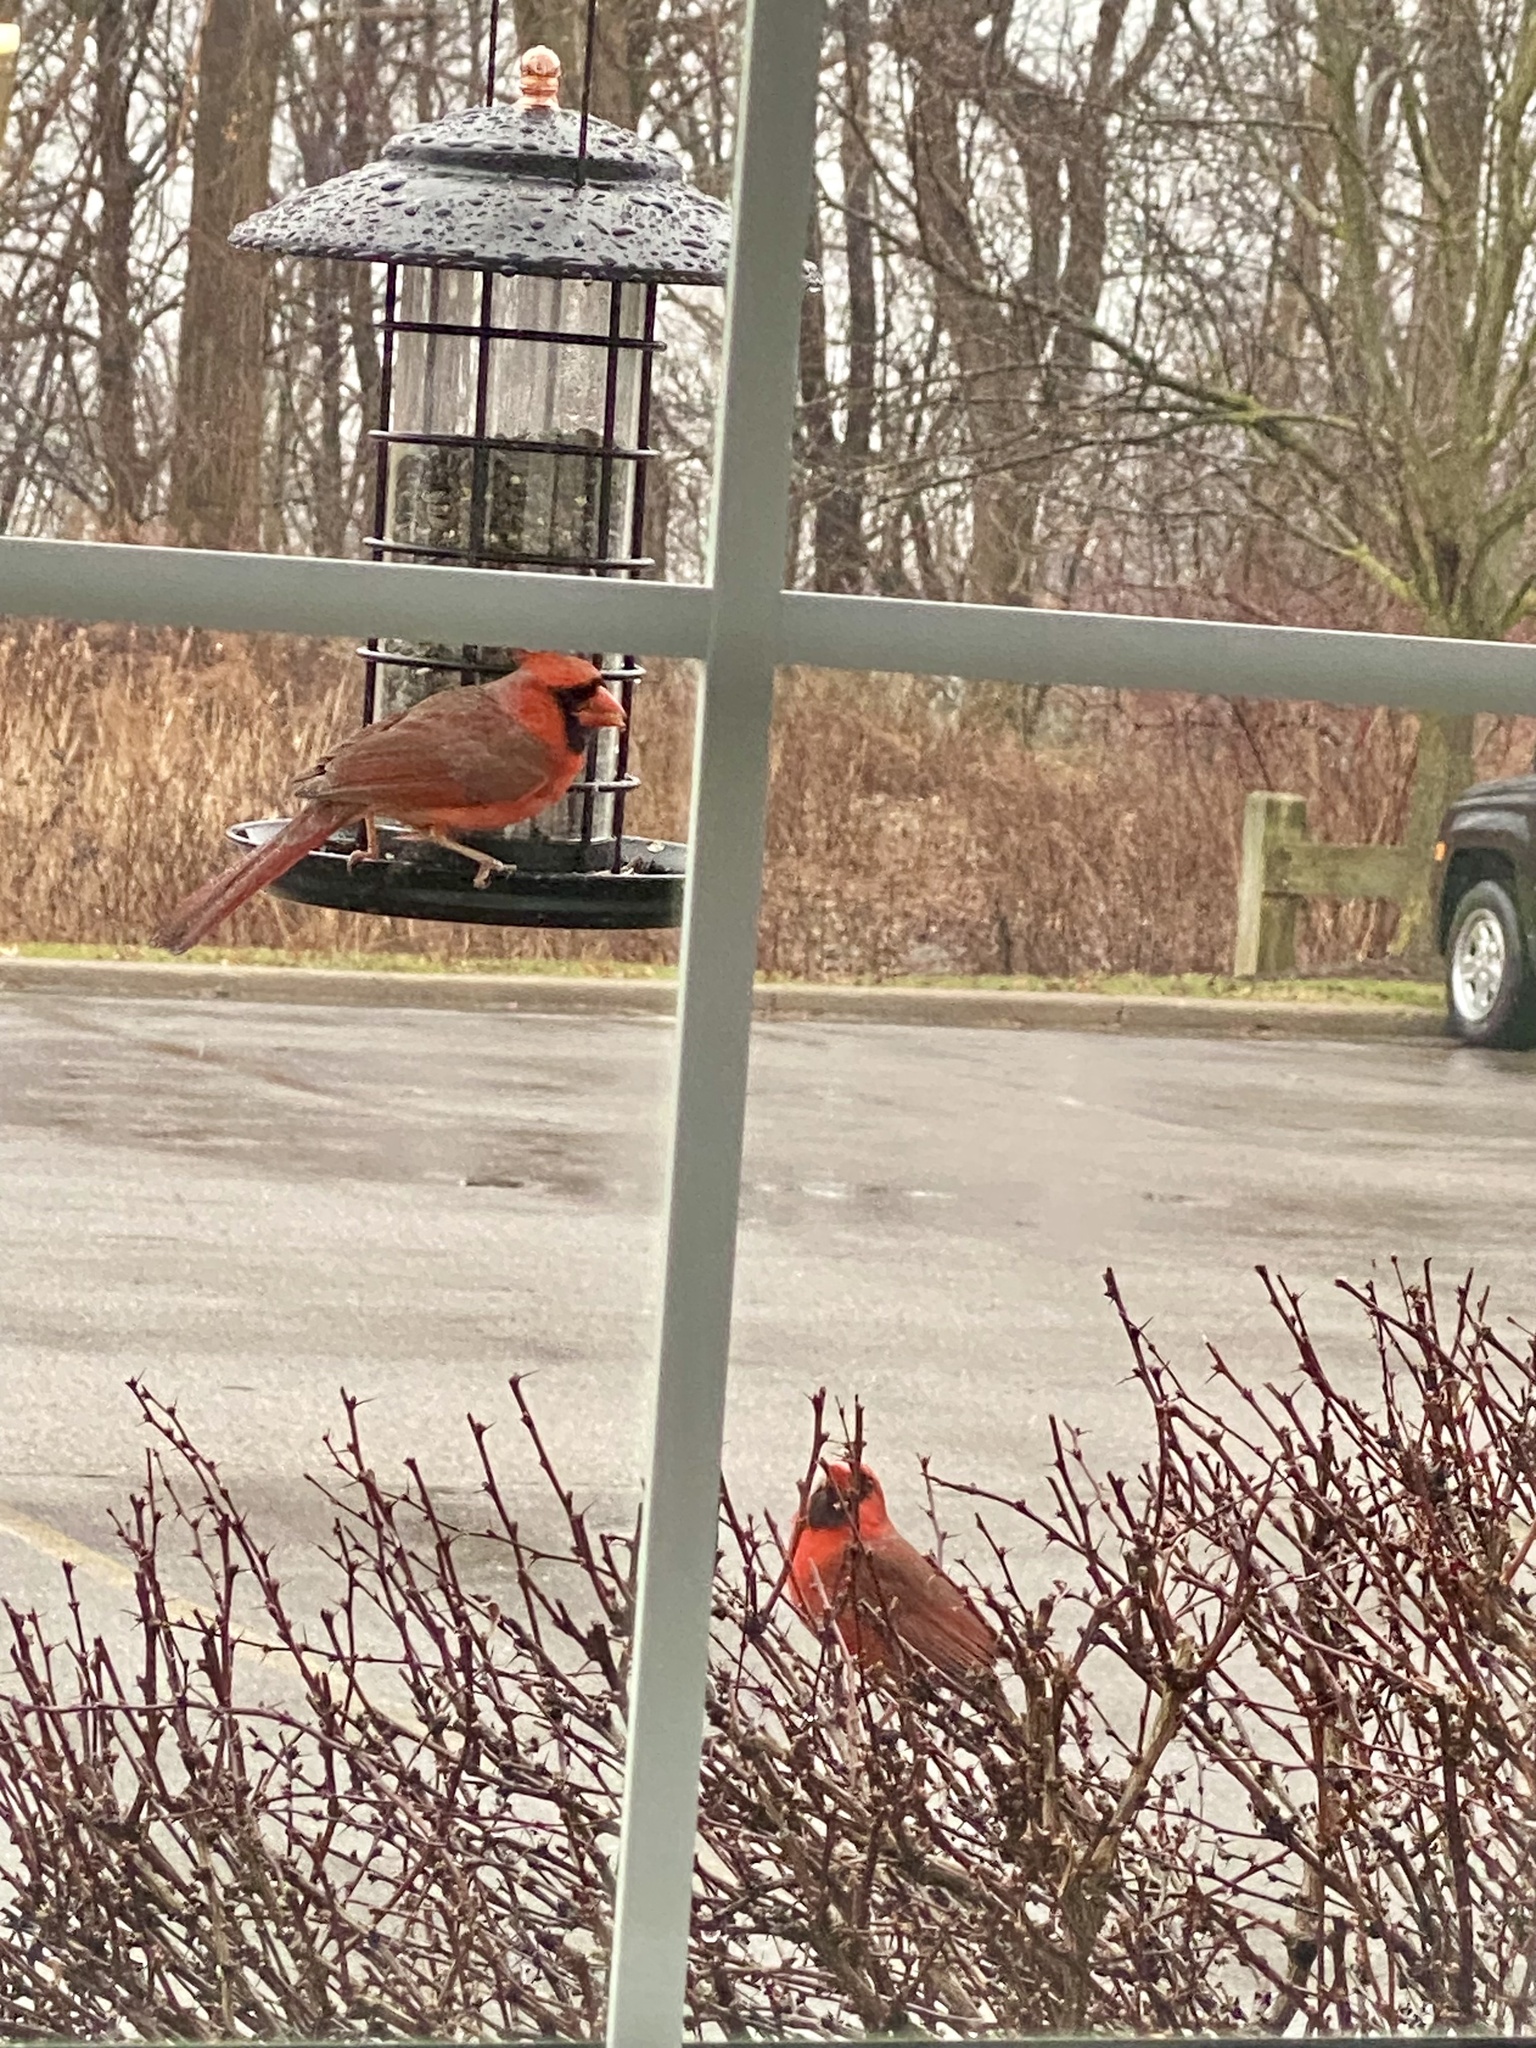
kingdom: Animalia
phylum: Chordata
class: Aves
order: Passeriformes
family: Cardinalidae
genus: Cardinalis
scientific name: Cardinalis cardinalis
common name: Northern cardinal
